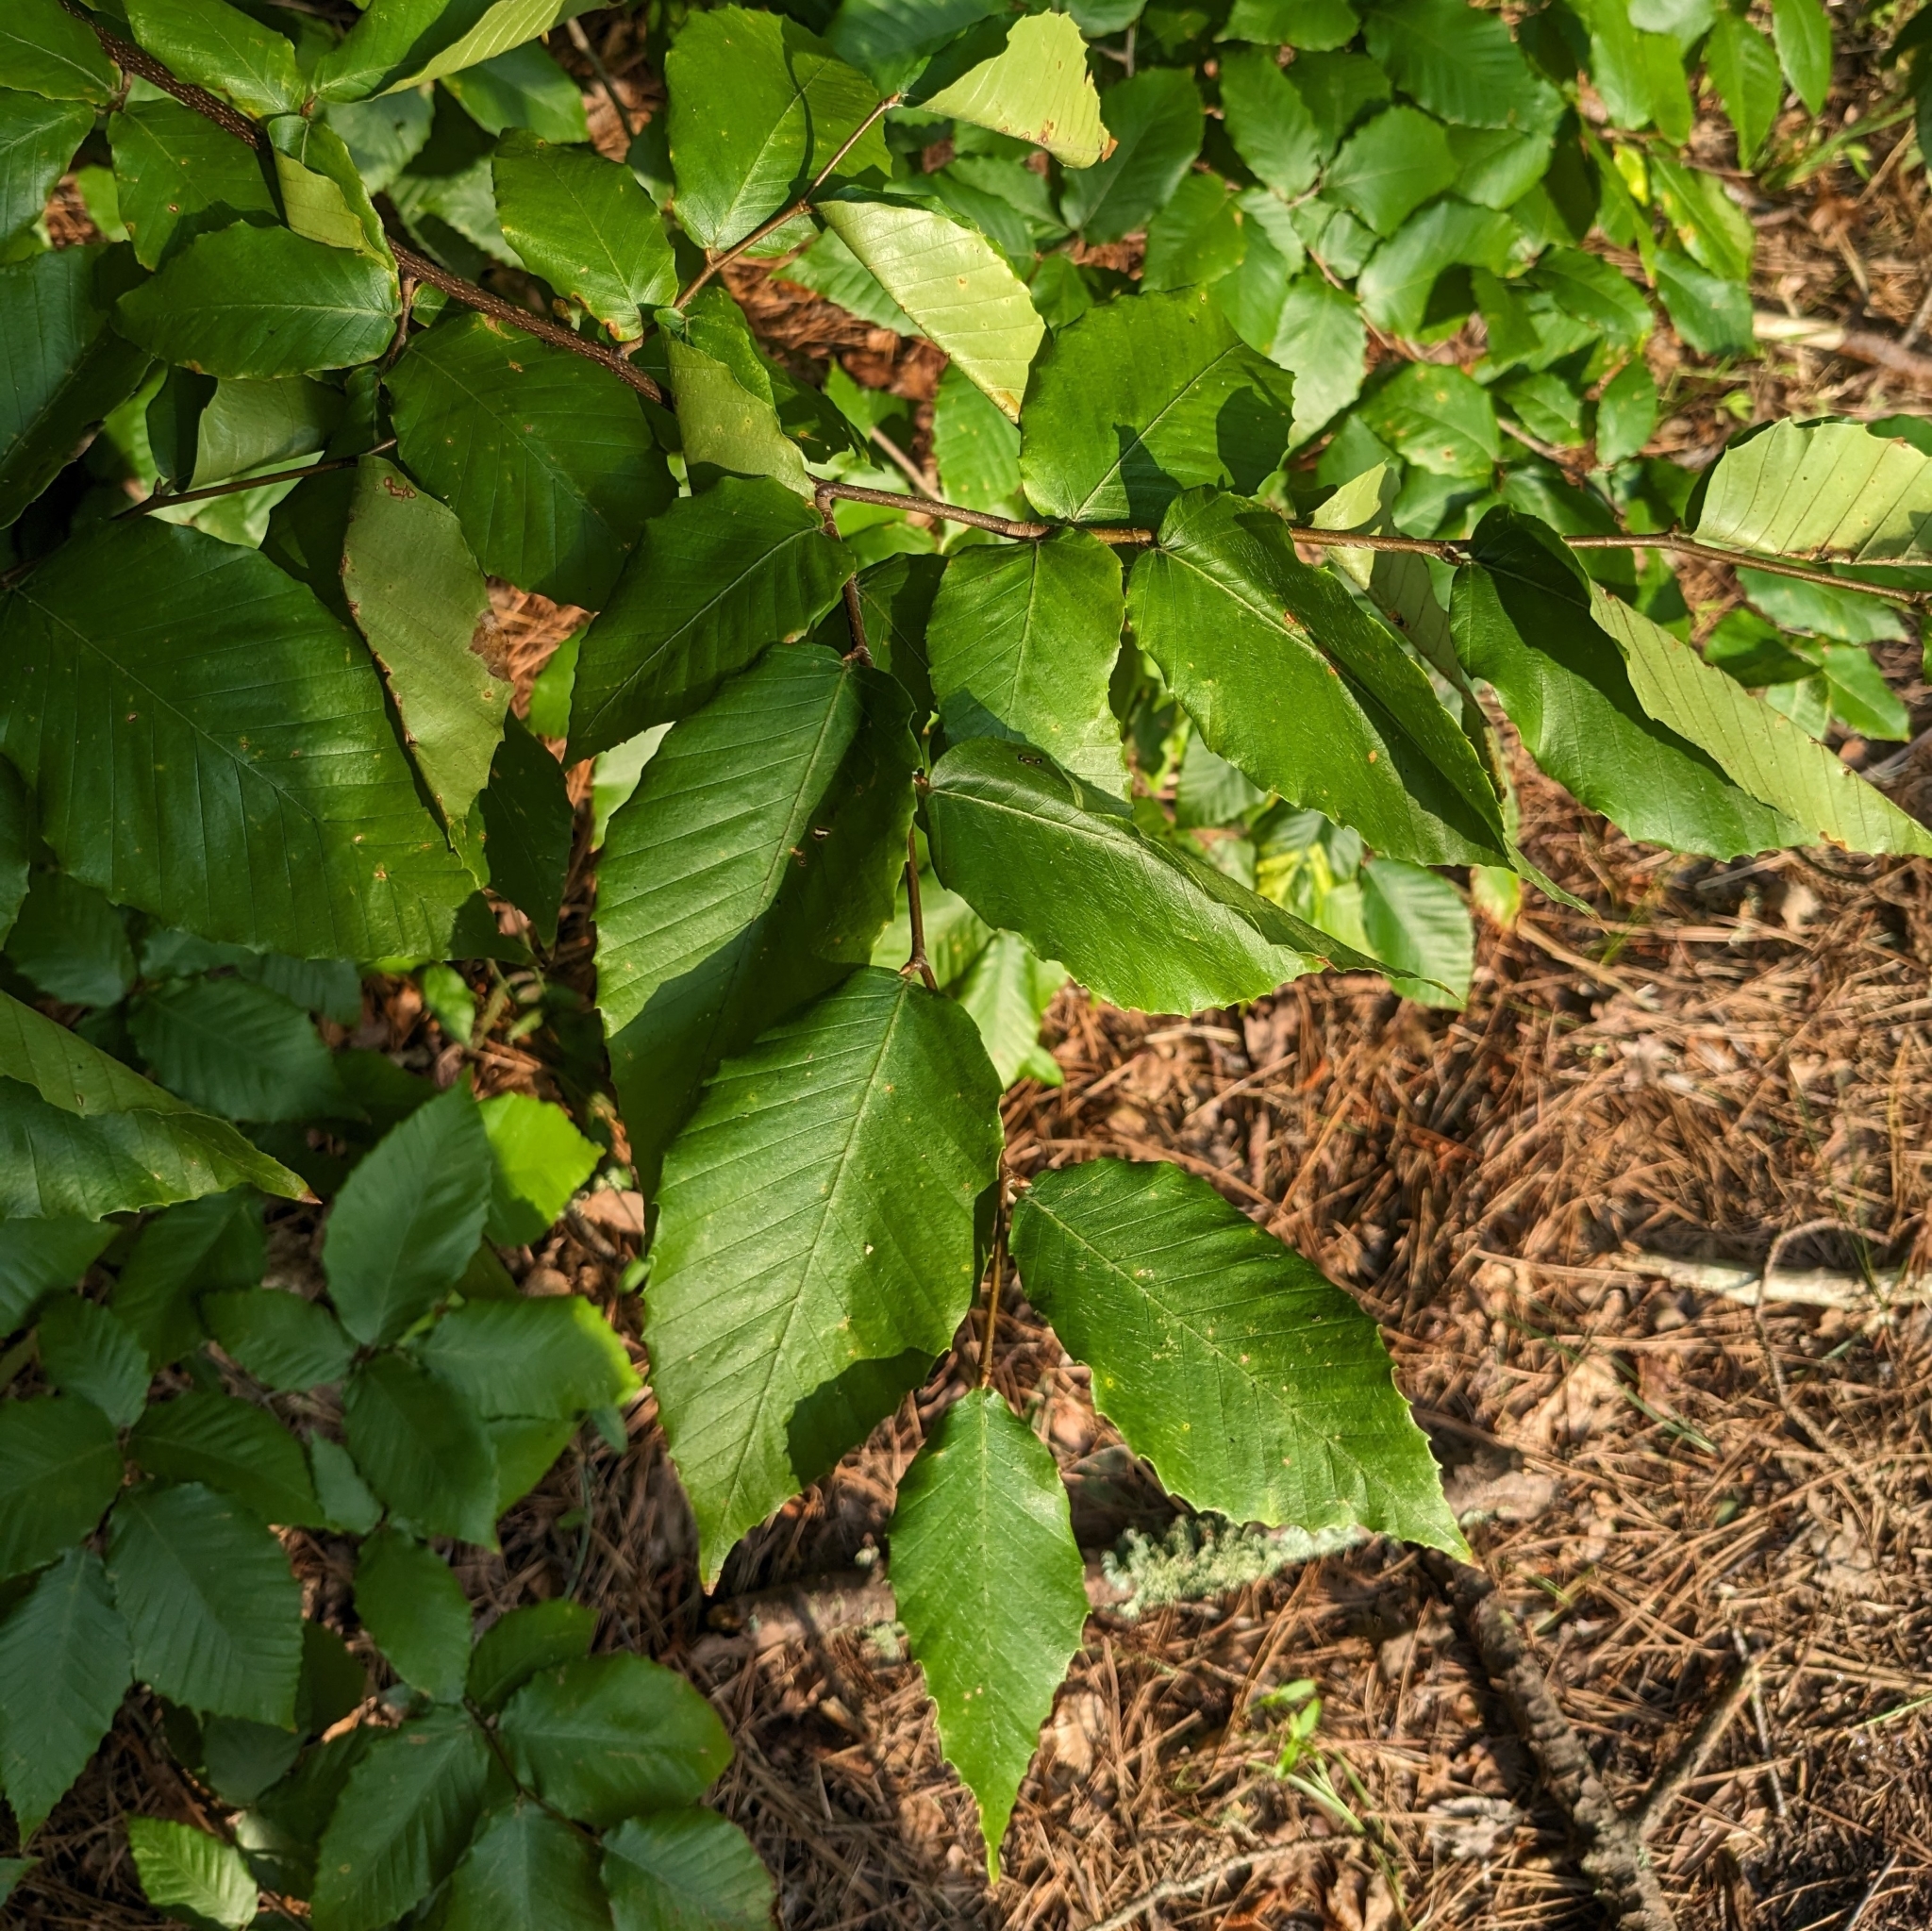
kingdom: Plantae
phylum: Tracheophyta
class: Magnoliopsida
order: Fagales
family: Fagaceae
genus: Fagus
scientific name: Fagus grandifolia
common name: American beech
